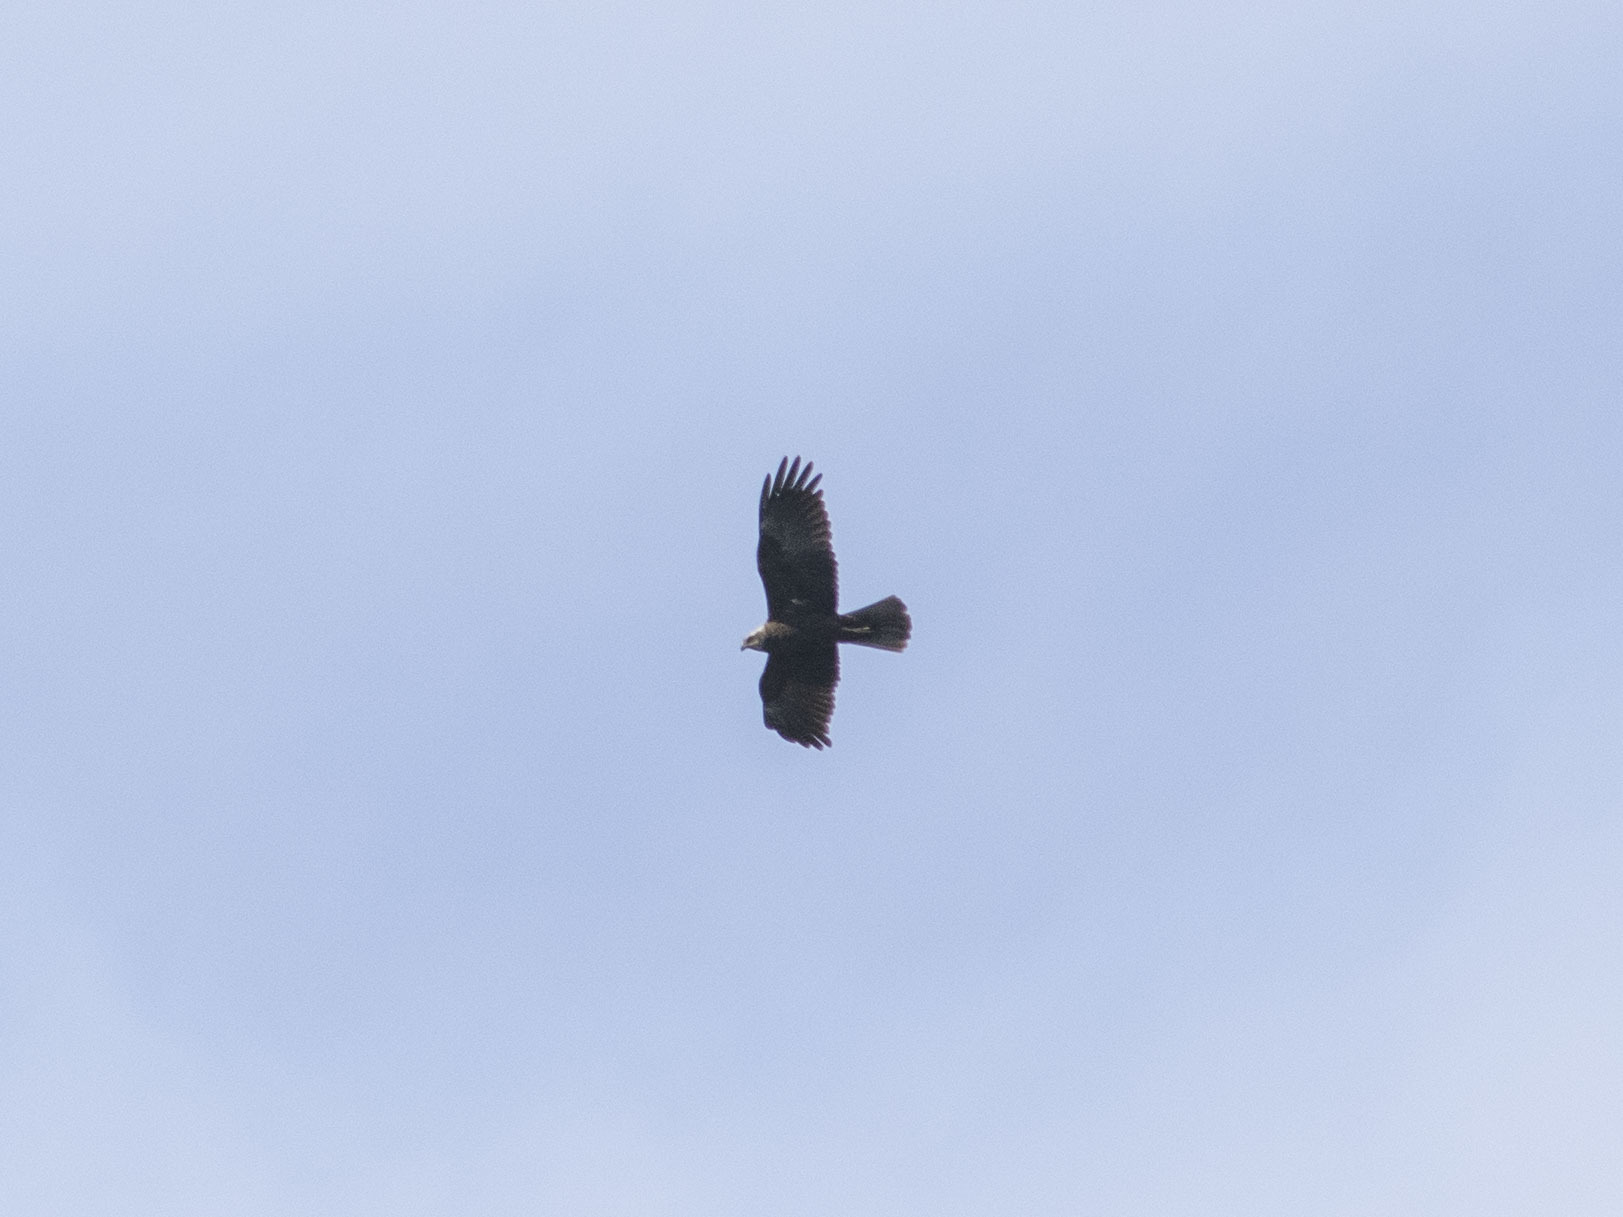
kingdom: Animalia
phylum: Chordata
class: Aves
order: Accipitriformes
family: Accipitridae
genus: Circus
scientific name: Circus aeruginosus
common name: Western marsh harrier
